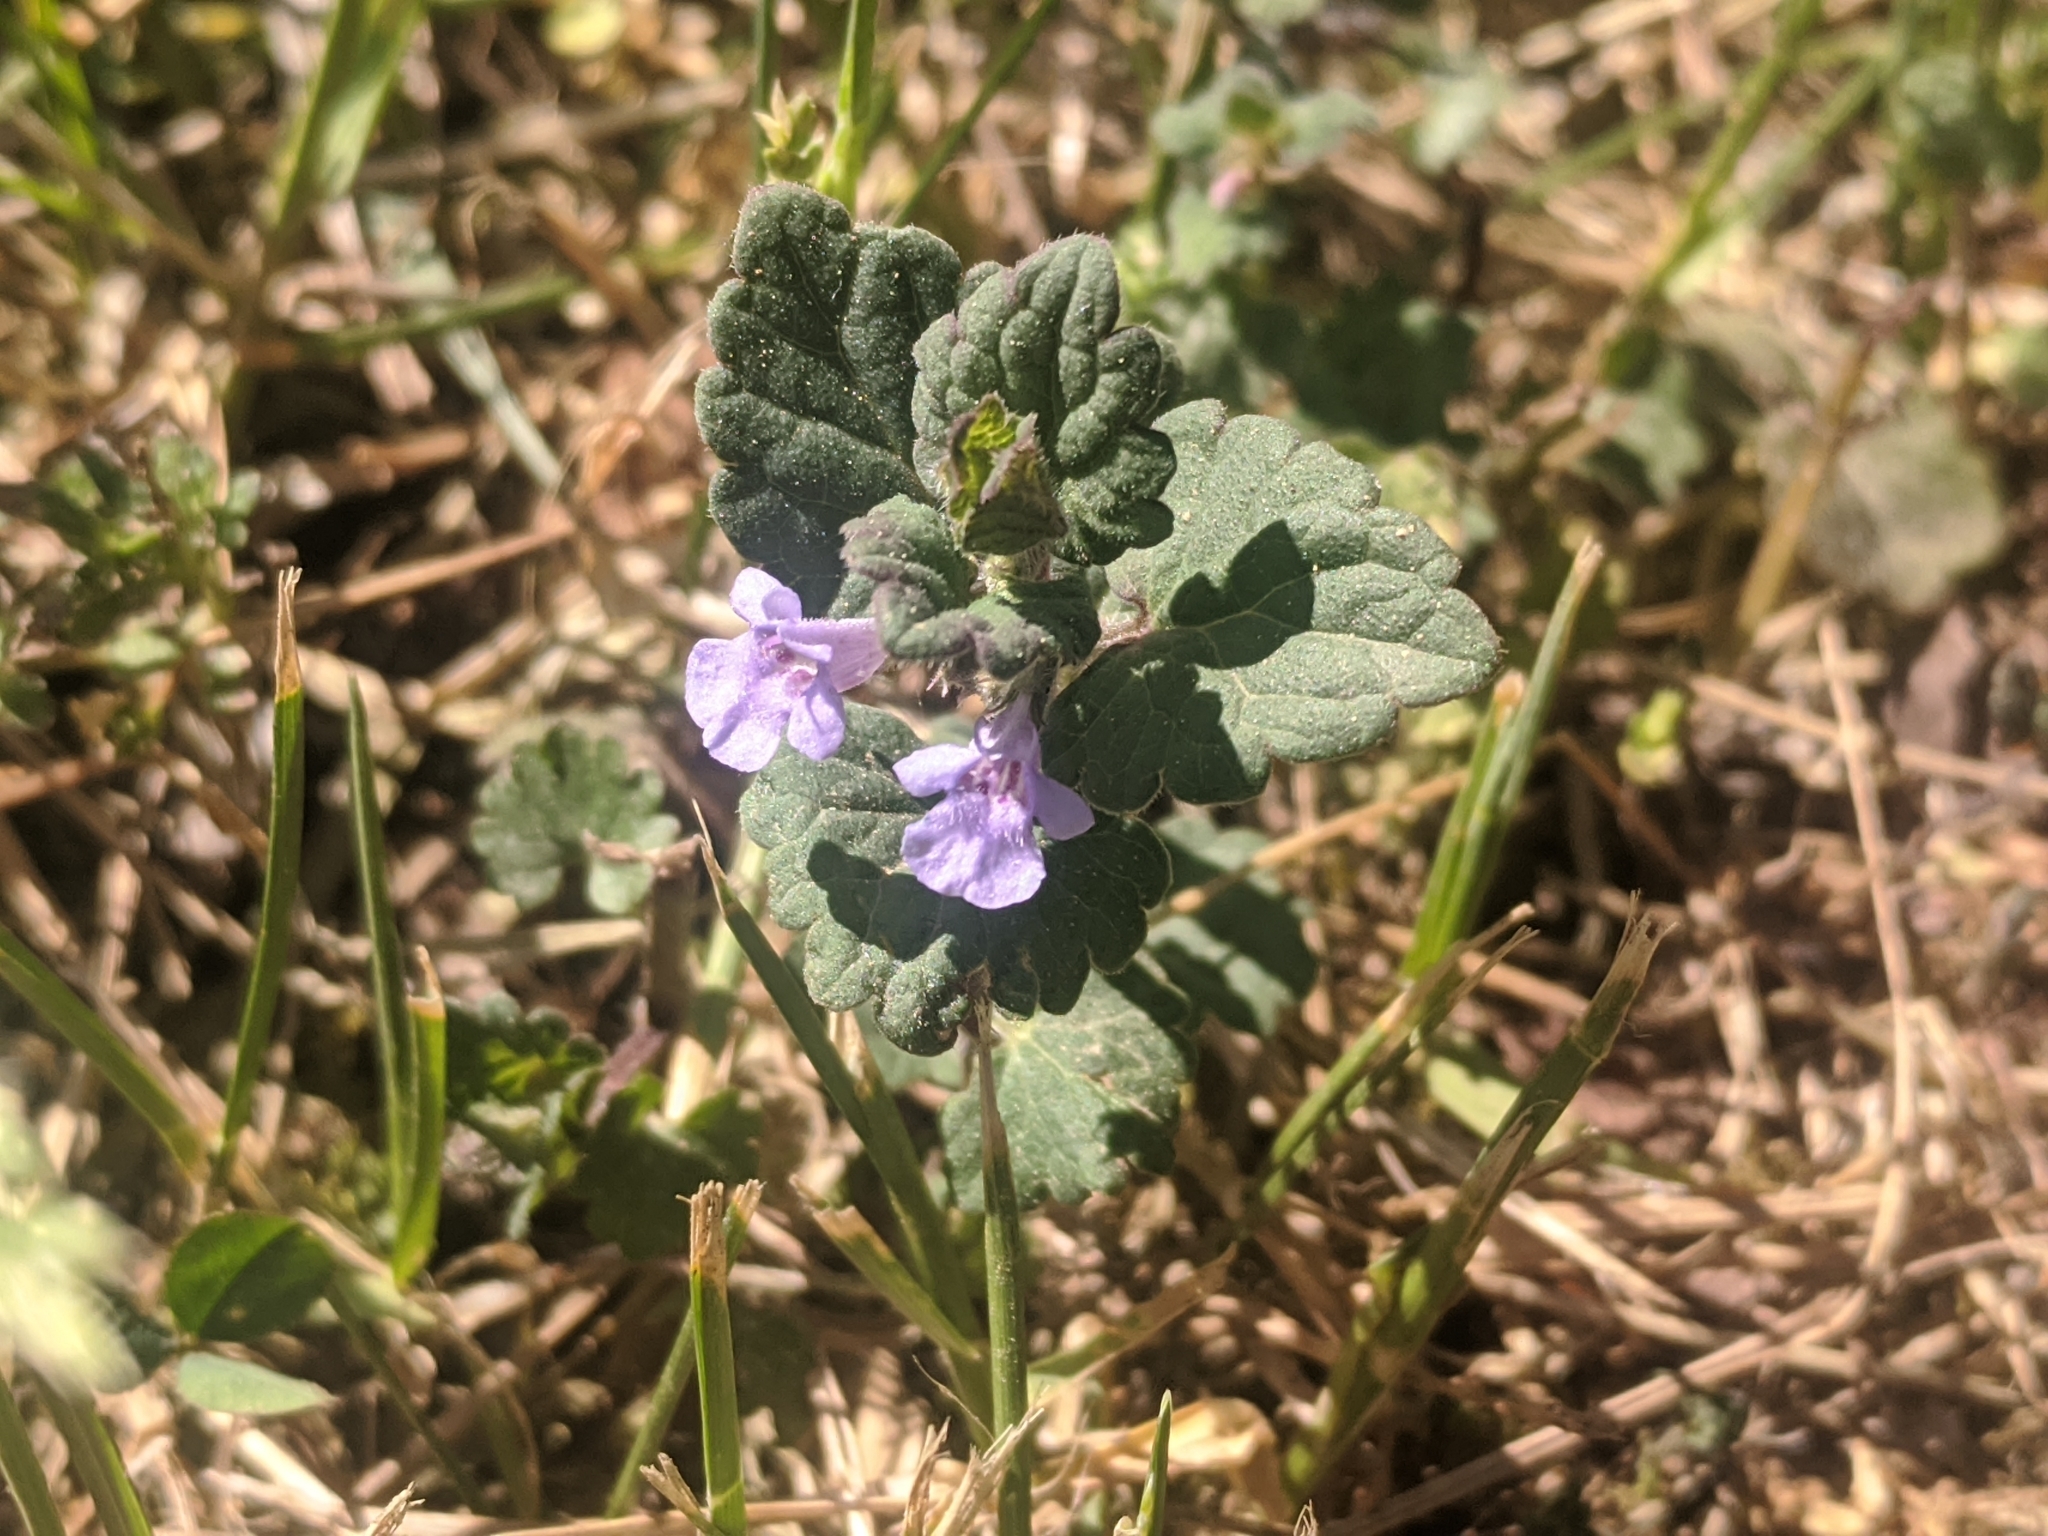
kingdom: Plantae
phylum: Tracheophyta
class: Magnoliopsida
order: Lamiales
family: Lamiaceae
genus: Glechoma
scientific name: Glechoma hirsuta
